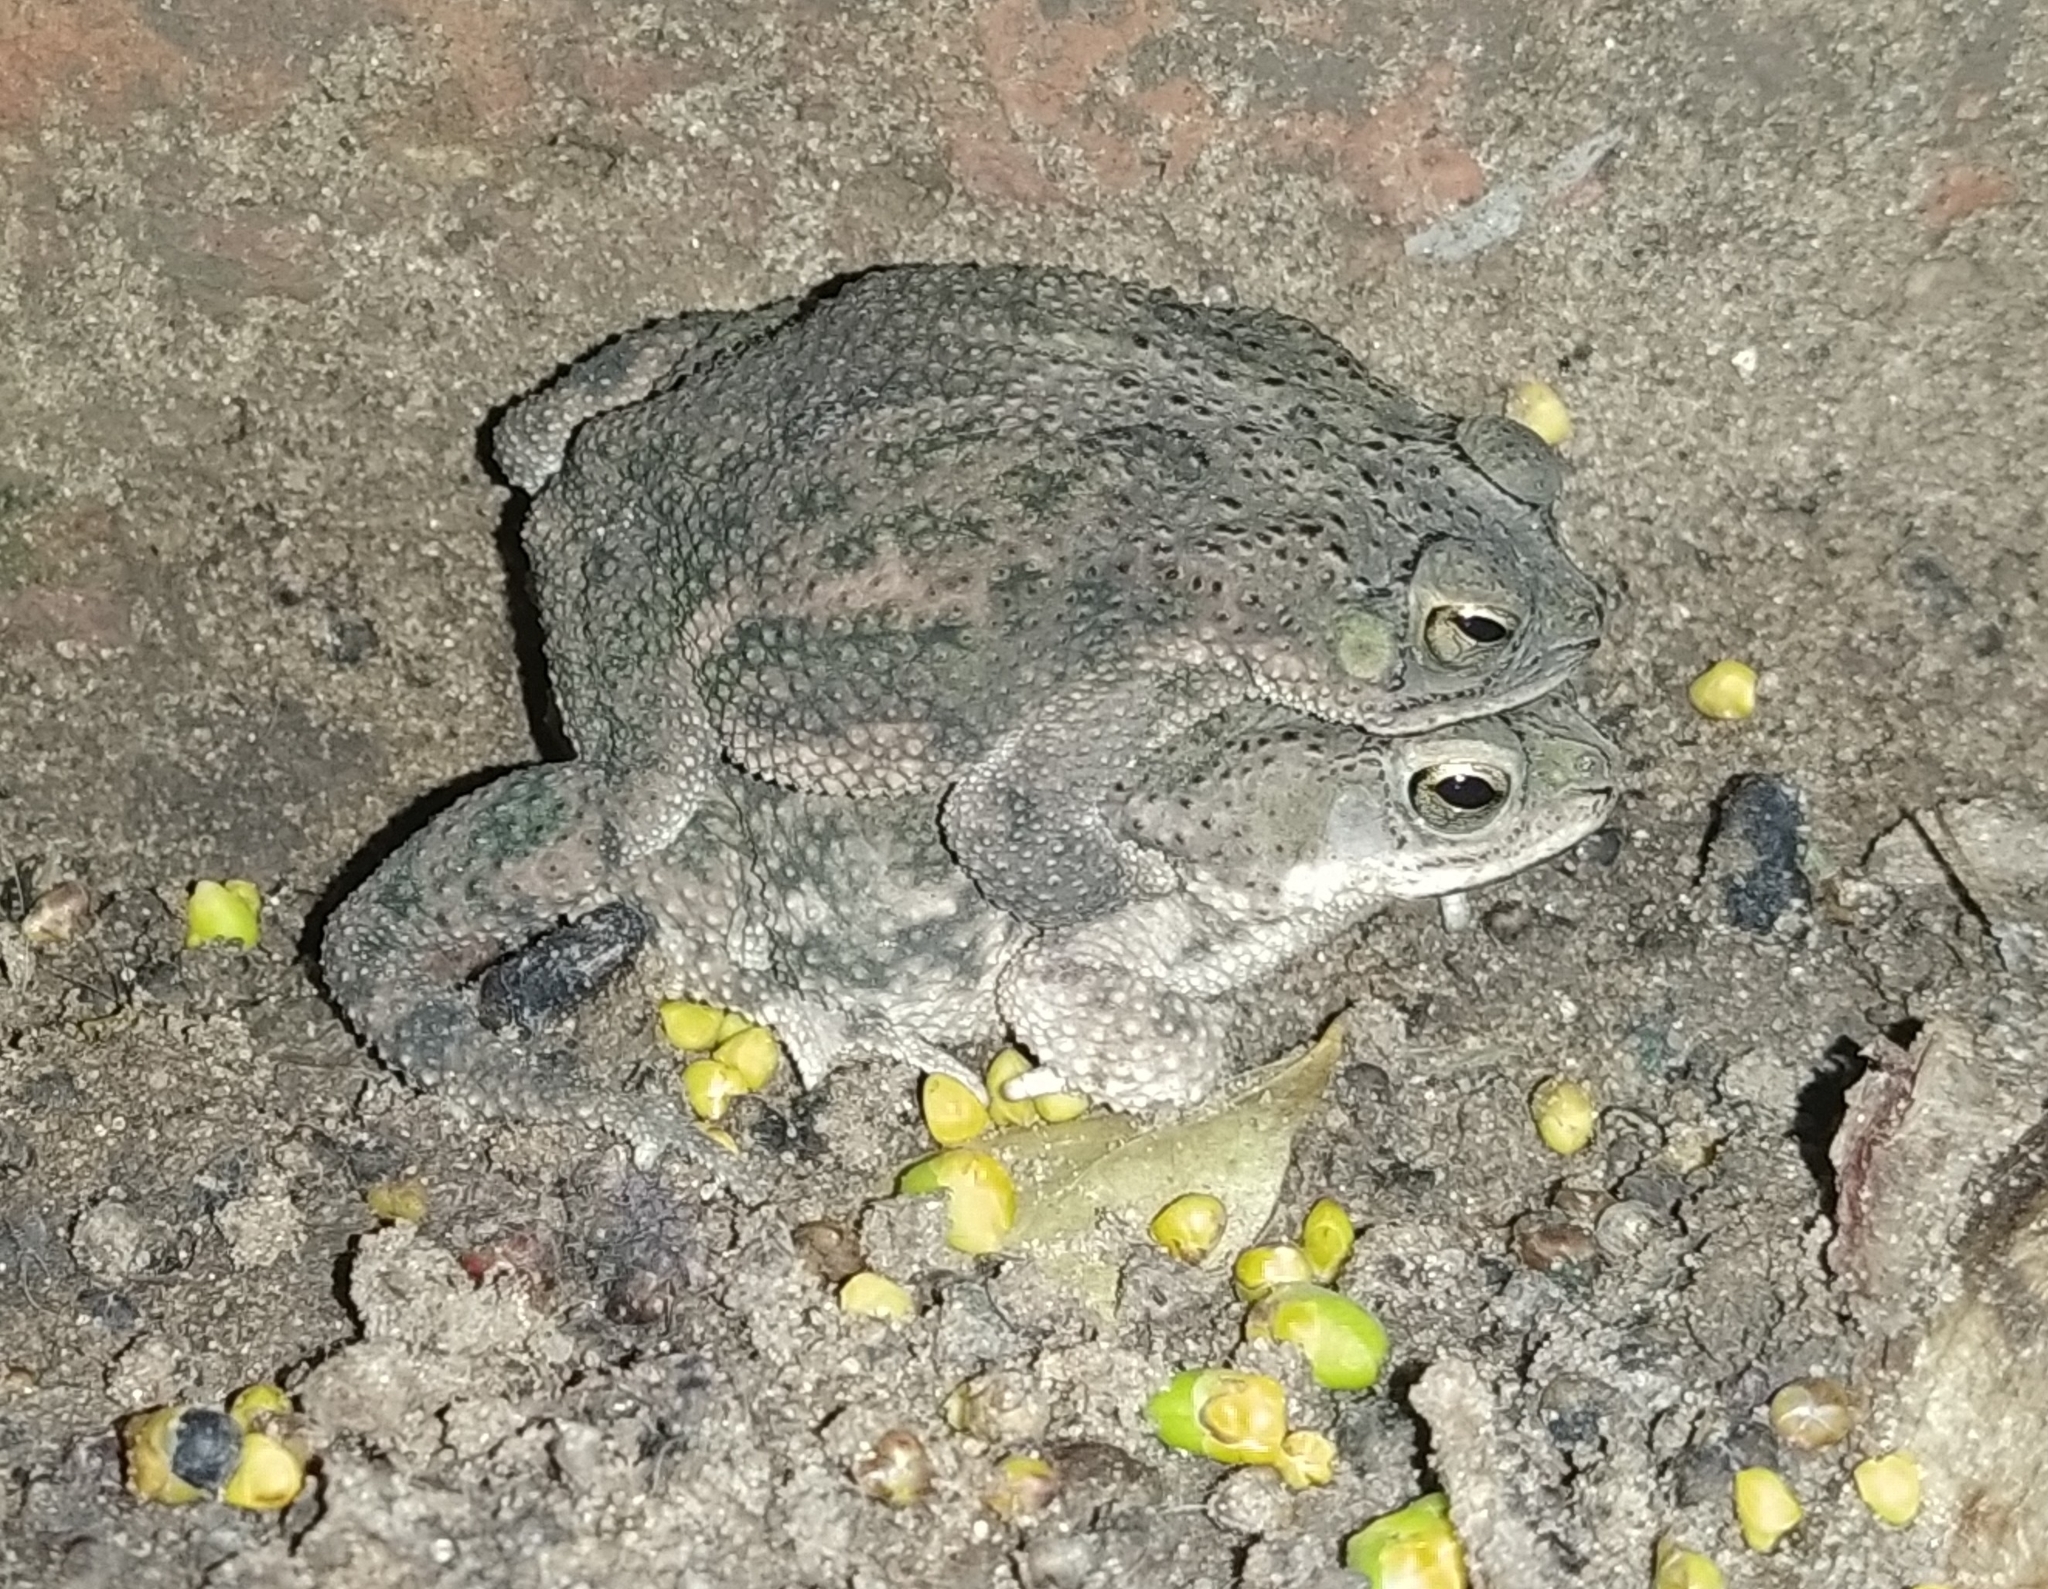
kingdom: Animalia
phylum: Chordata
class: Amphibia
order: Anura
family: Bufonidae
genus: Rhinella
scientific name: Rhinella major
